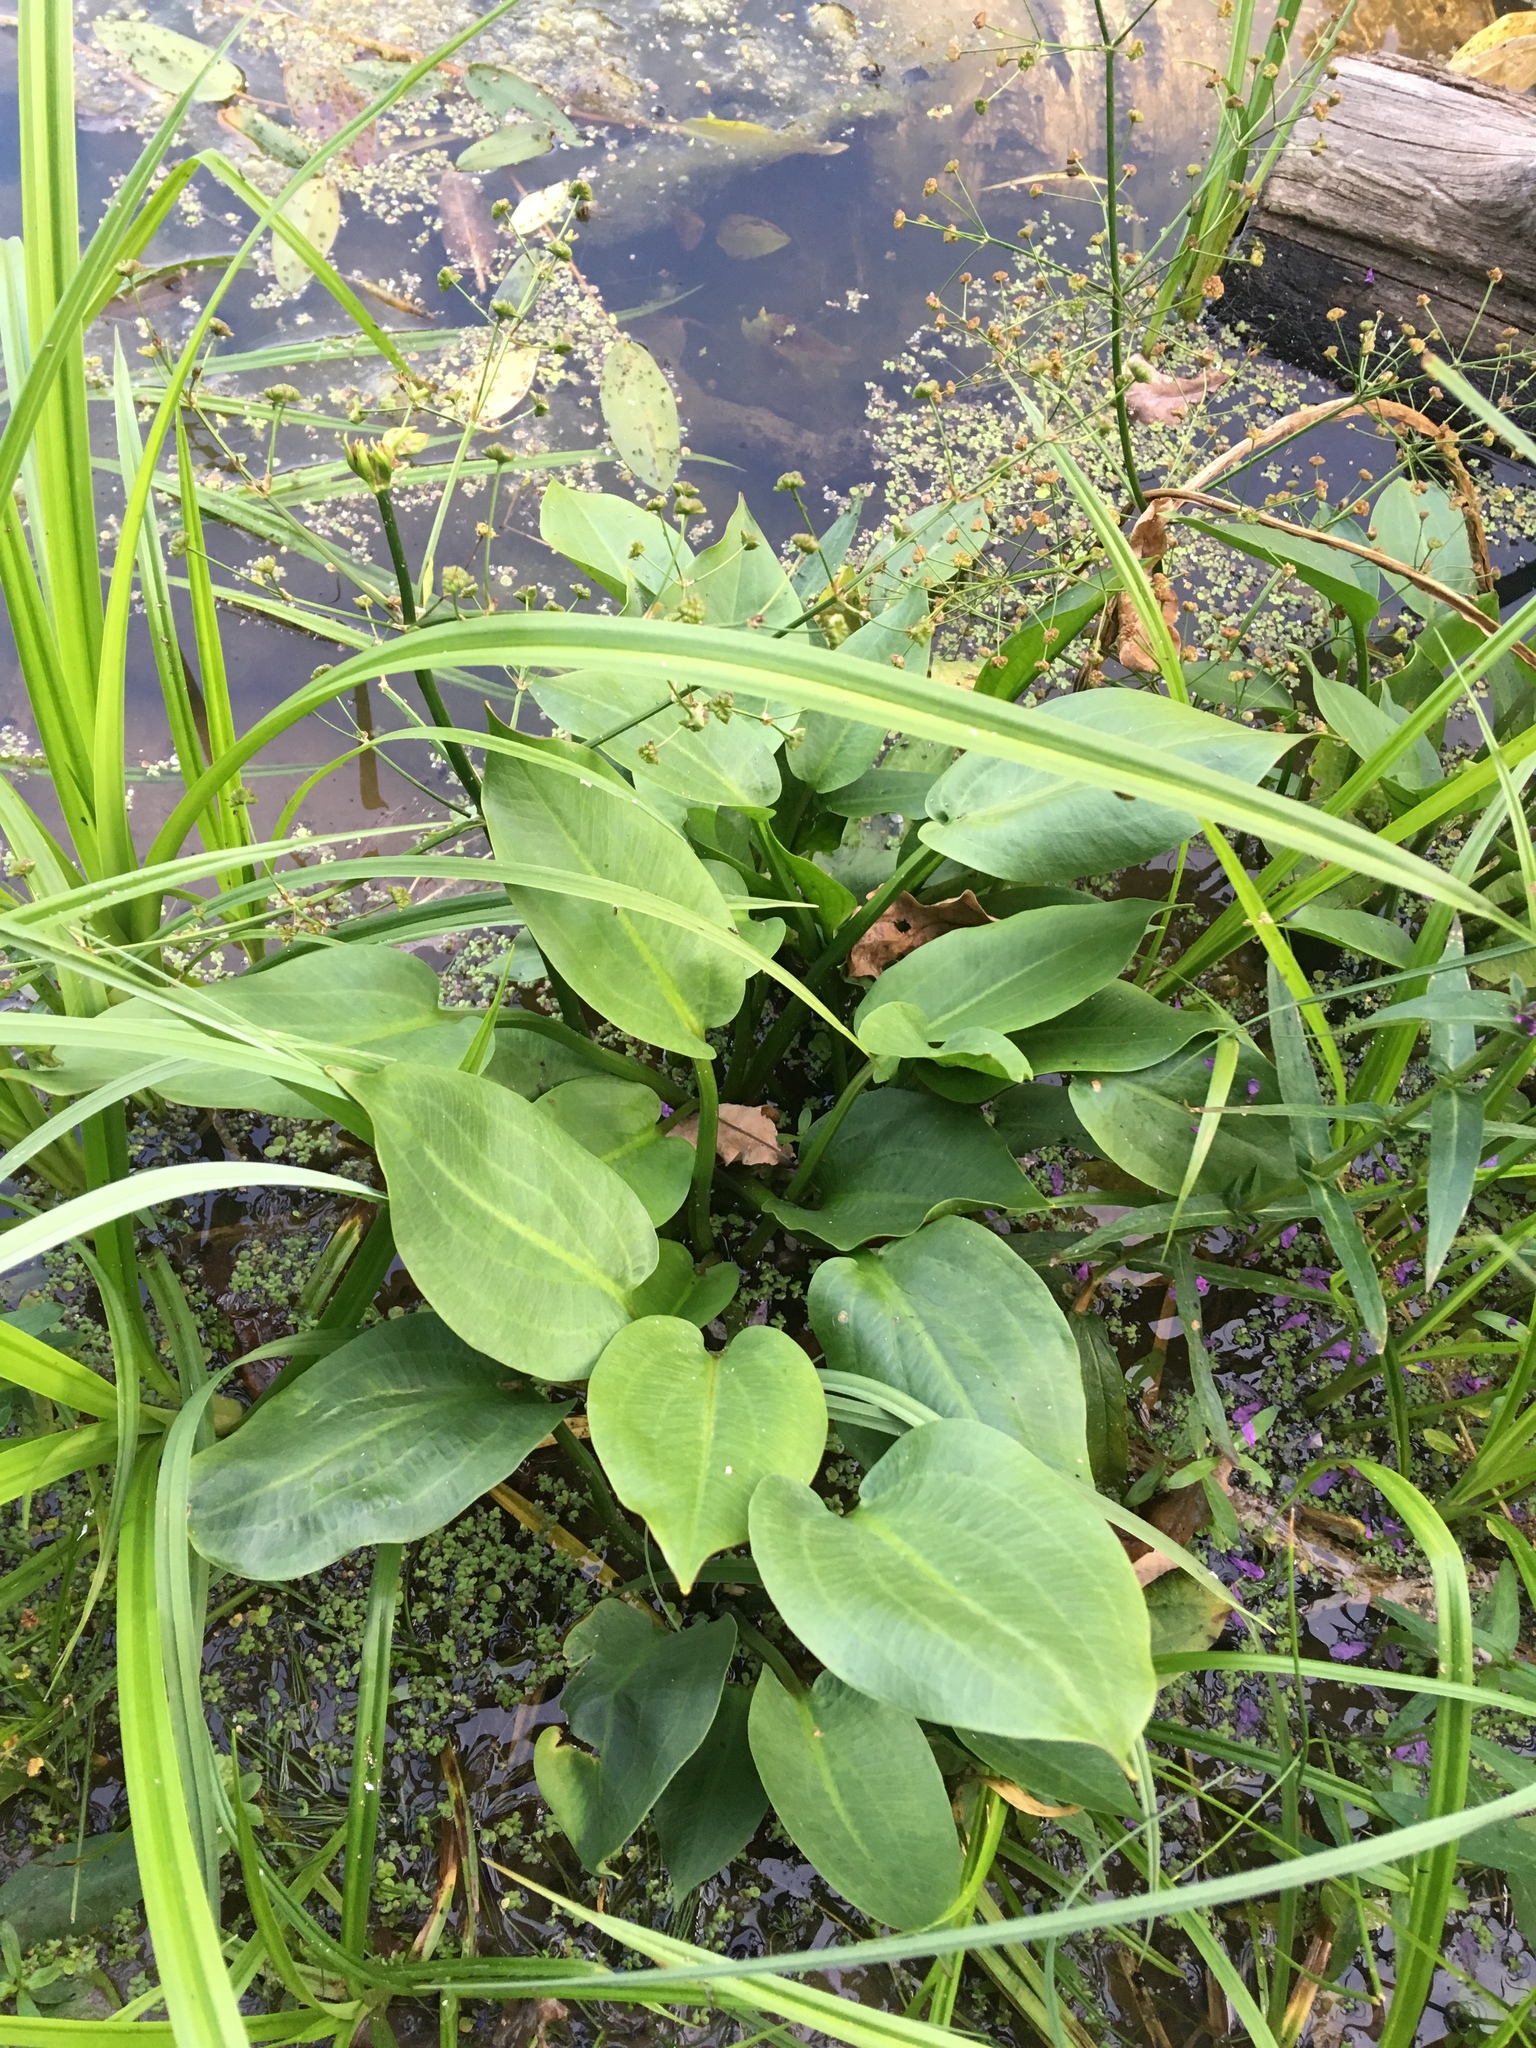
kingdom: Plantae
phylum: Tracheophyta
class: Liliopsida
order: Alismatales
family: Alismataceae
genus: Alisma
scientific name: Alisma plantago-aquatica
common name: Water-plantain
